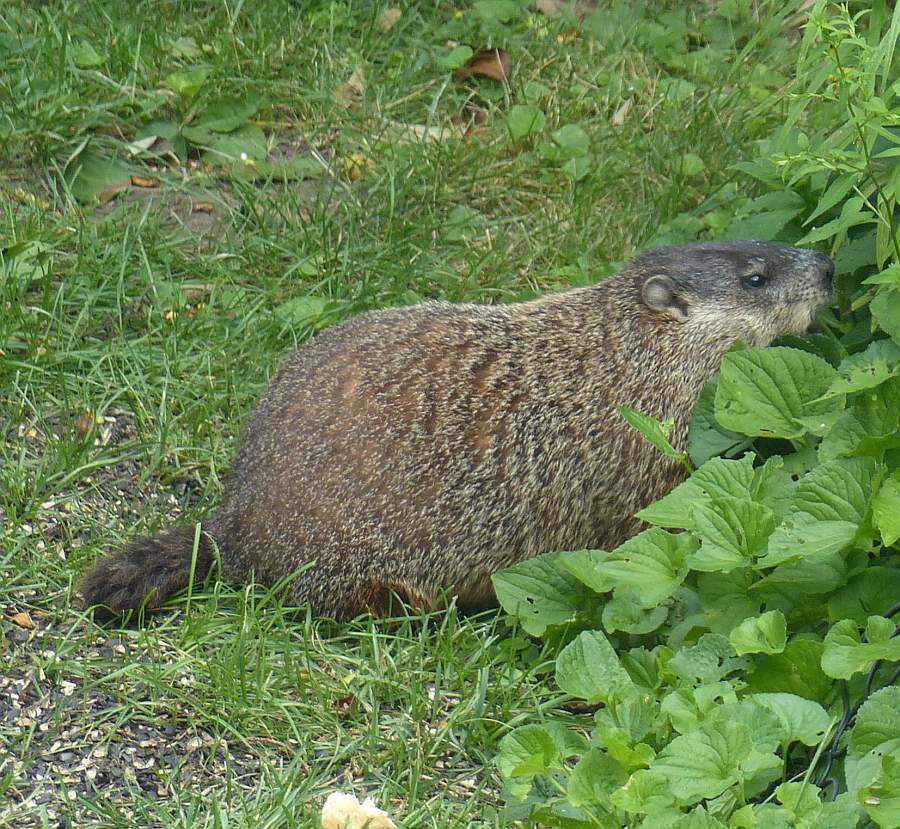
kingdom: Animalia
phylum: Chordata
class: Mammalia
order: Rodentia
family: Sciuridae
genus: Marmota
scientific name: Marmota monax
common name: Groundhog
